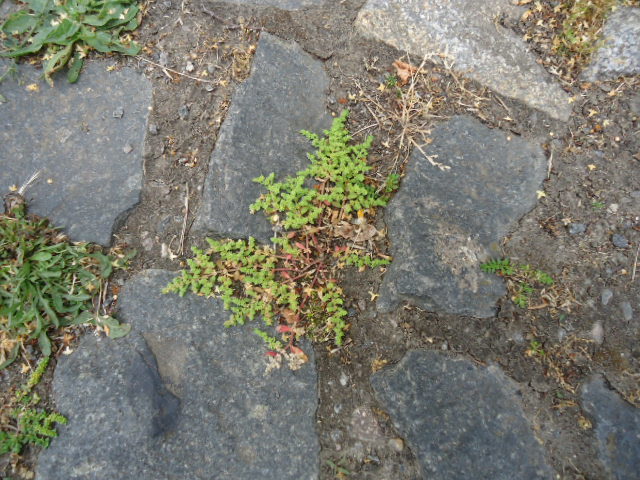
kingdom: Plantae
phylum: Tracheophyta
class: Magnoliopsida
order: Caryophyllales
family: Caryophyllaceae
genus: Herniaria
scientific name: Herniaria glabra
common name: Smooth rupturewort
